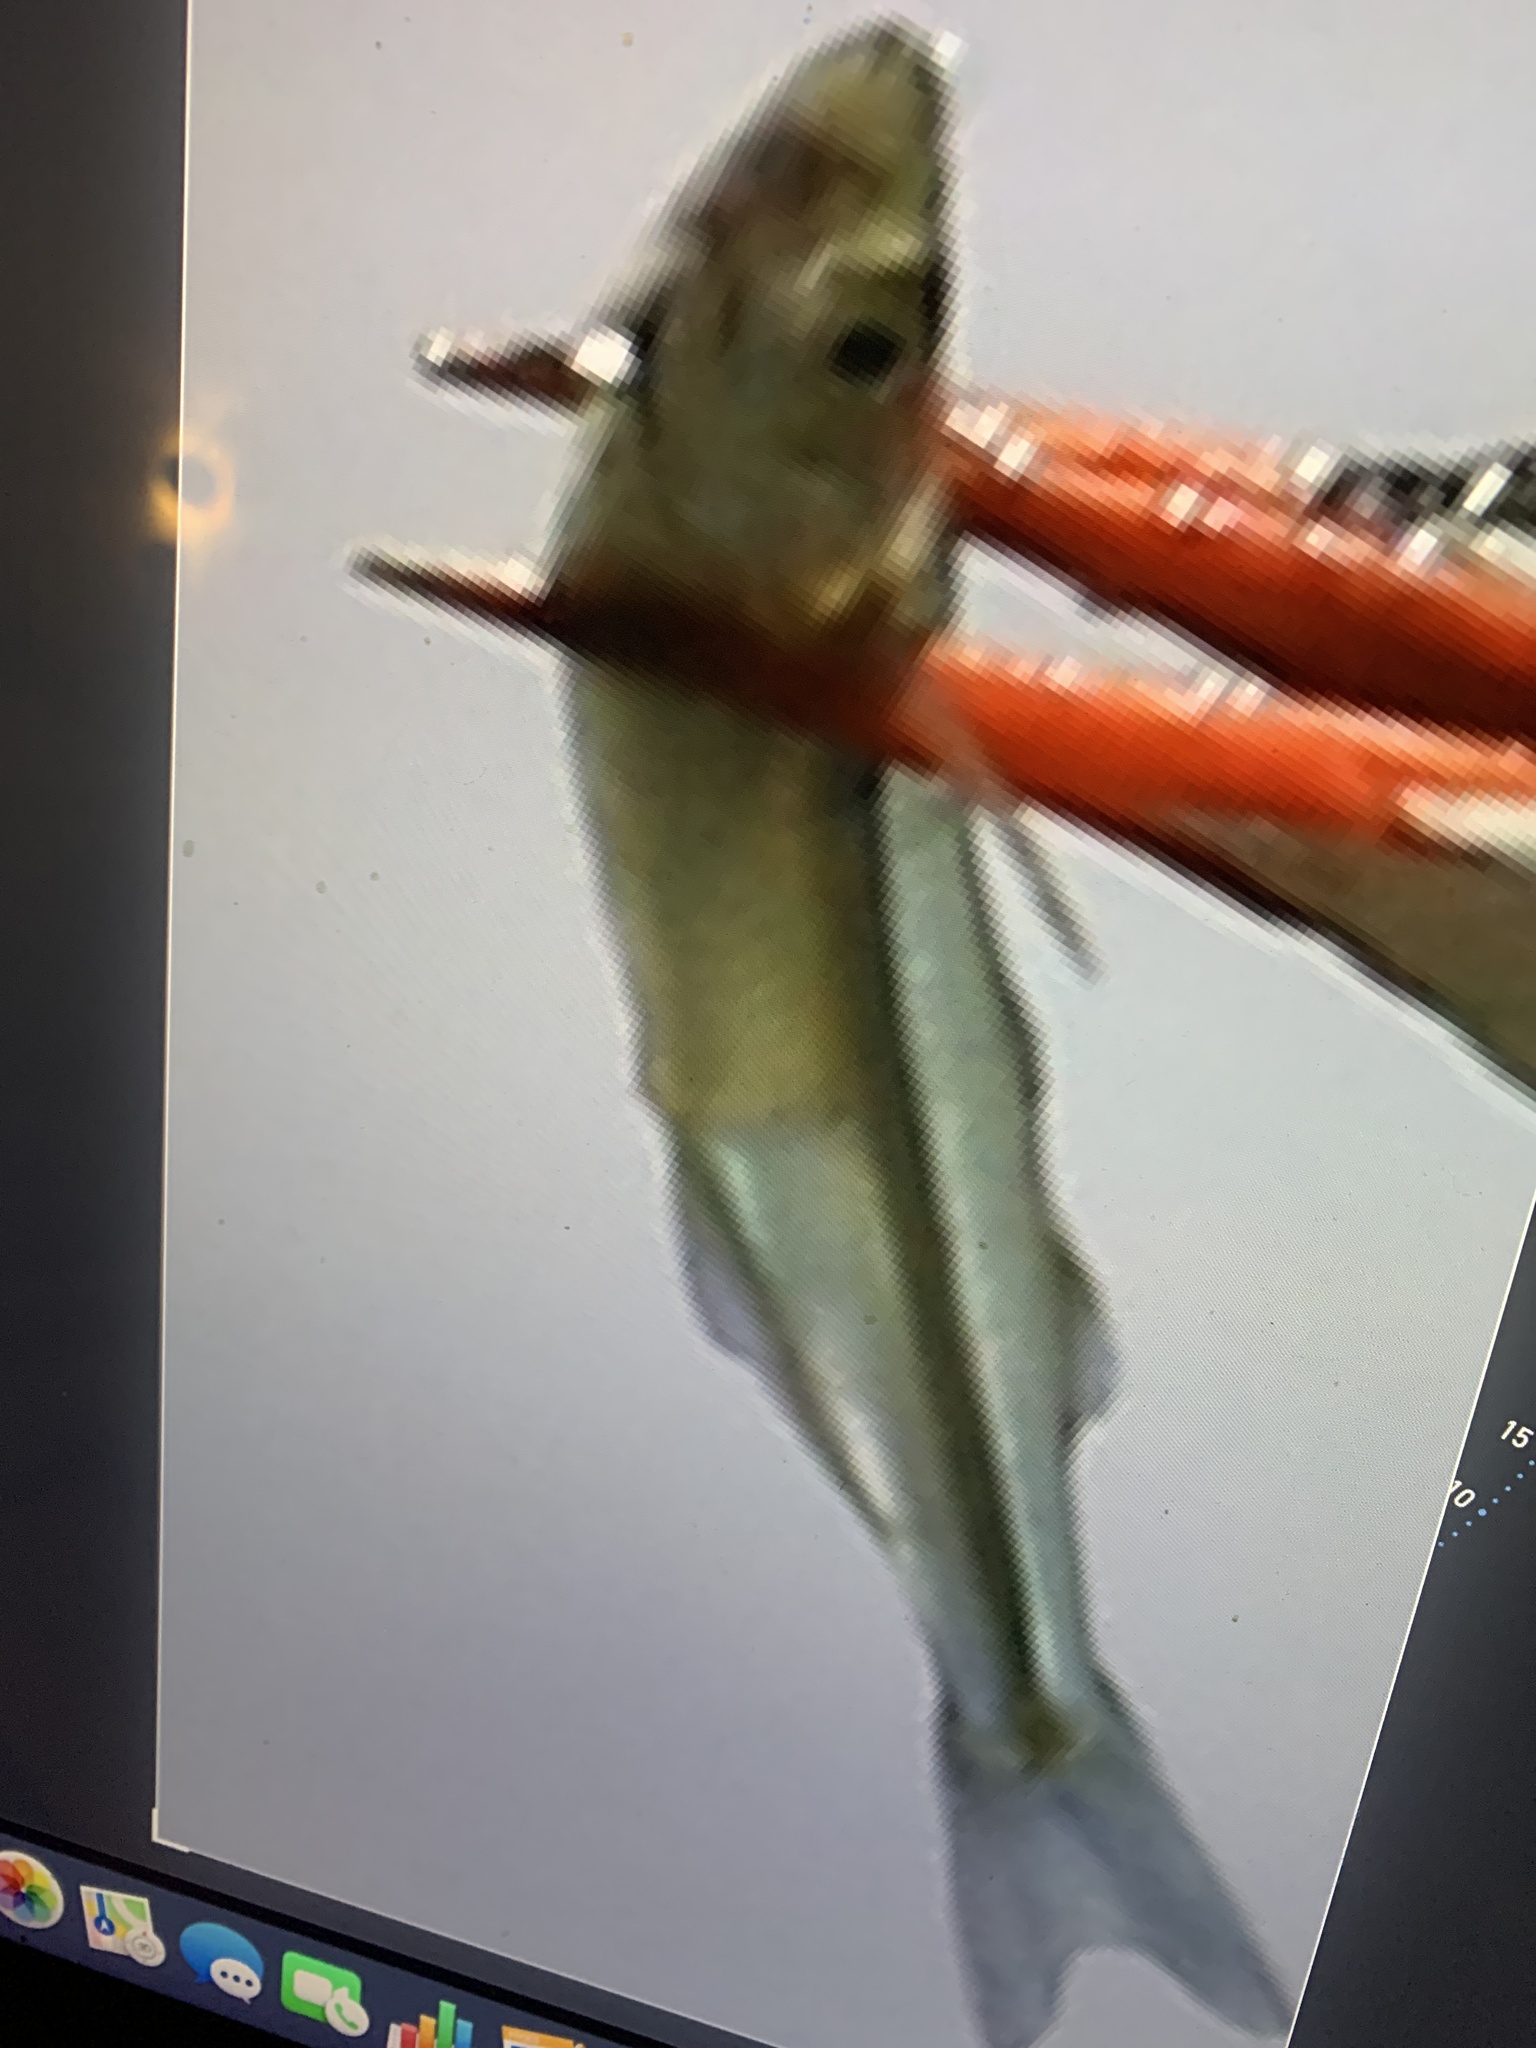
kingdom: Animalia
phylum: Chordata
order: Atheriniformes
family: Atherinopsidae
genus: Menidia
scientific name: Menidia menidia
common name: Atlantic silverside
